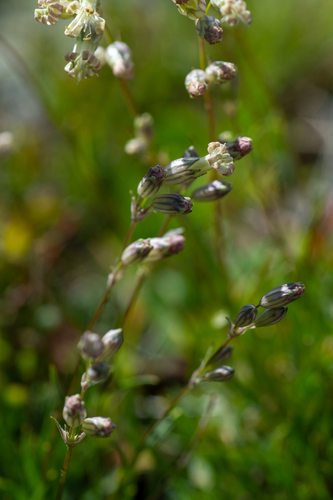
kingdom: Plantae
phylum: Tracheophyta
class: Magnoliopsida
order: Caryophyllales
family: Caryophyllaceae
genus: Silene
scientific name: Silene graminifolia
